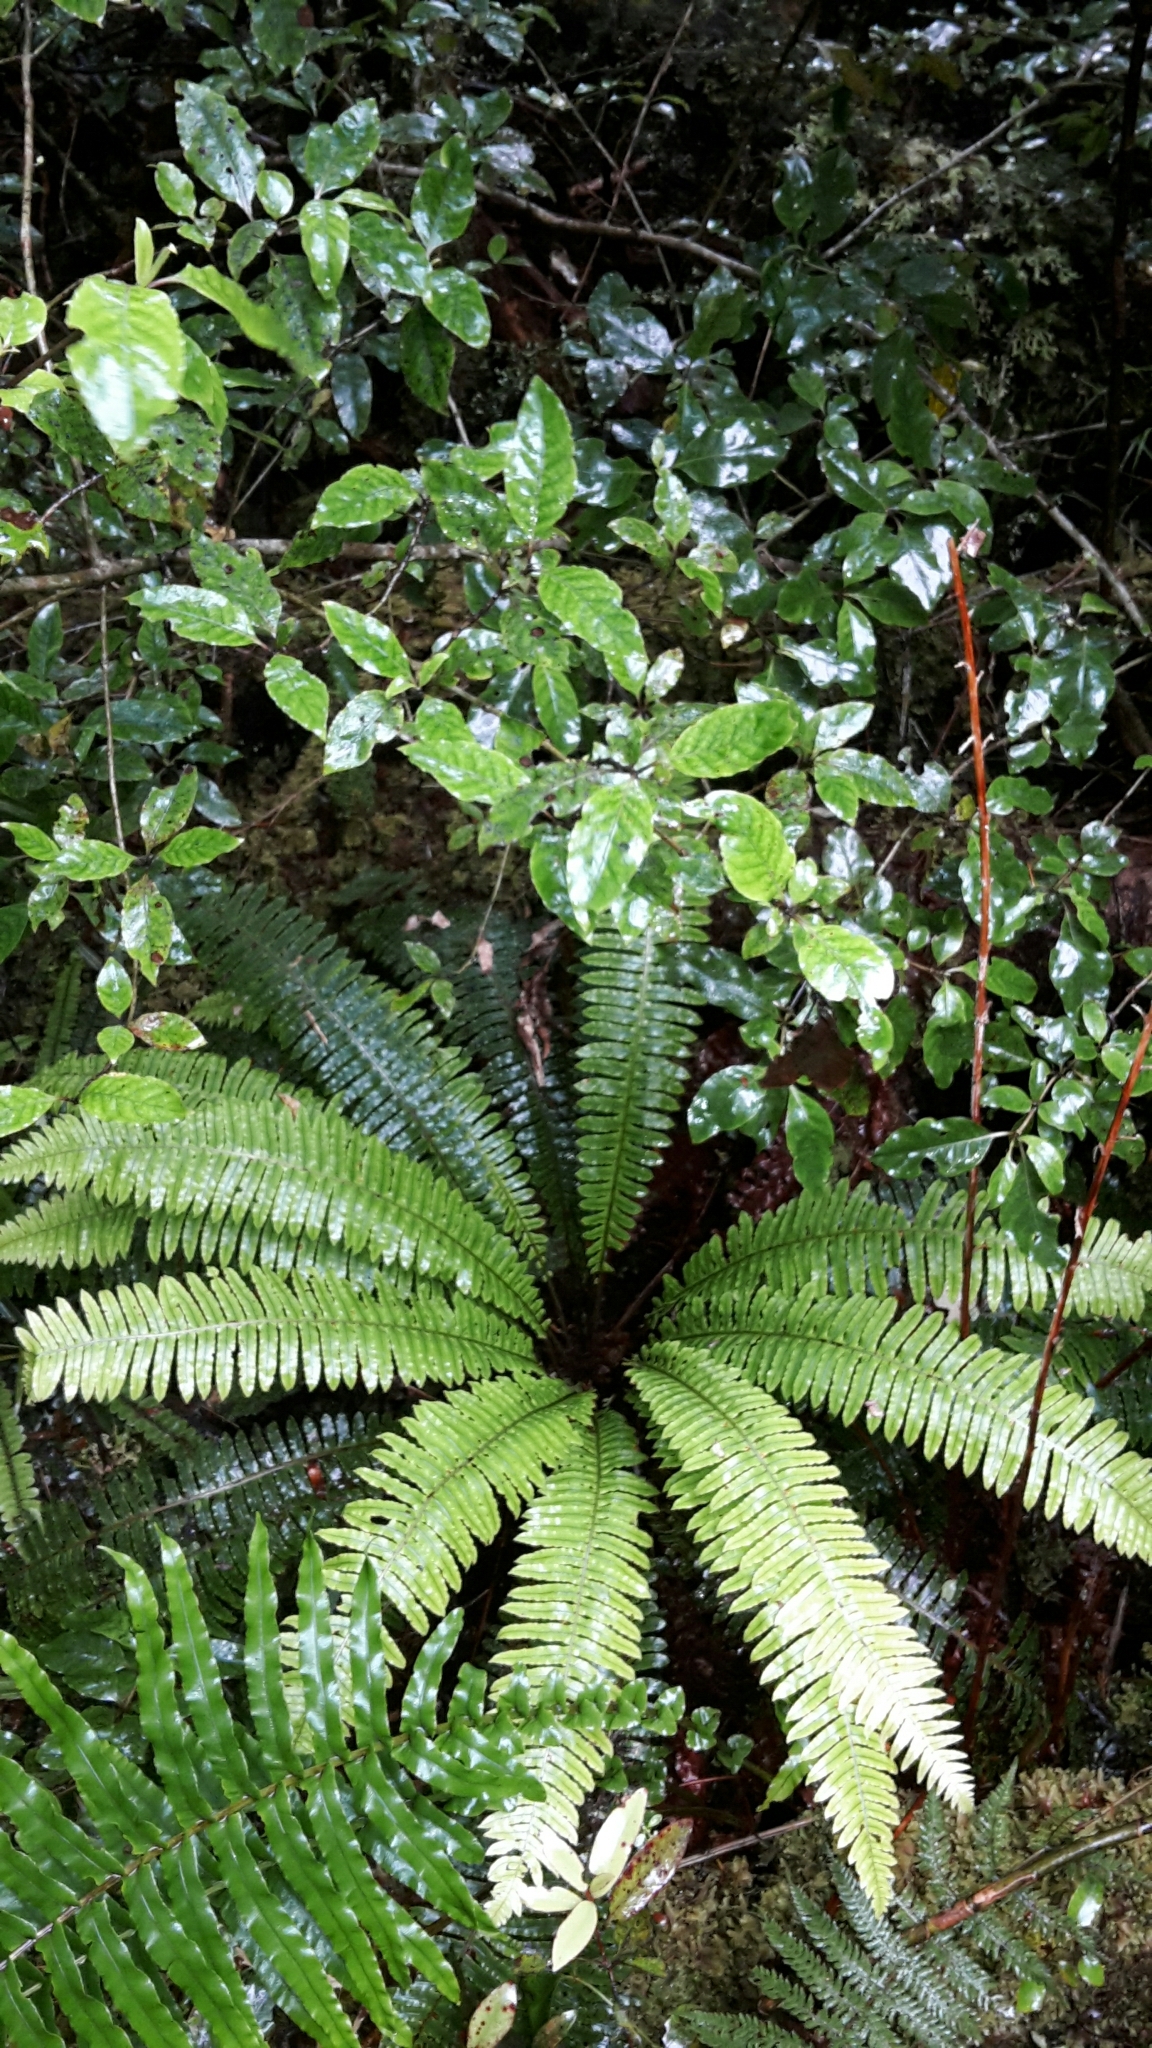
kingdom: Plantae
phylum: Tracheophyta
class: Polypodiopsida
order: Polypodiales
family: Blechnaceae
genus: Lomaria
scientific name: Lomaria discolor
